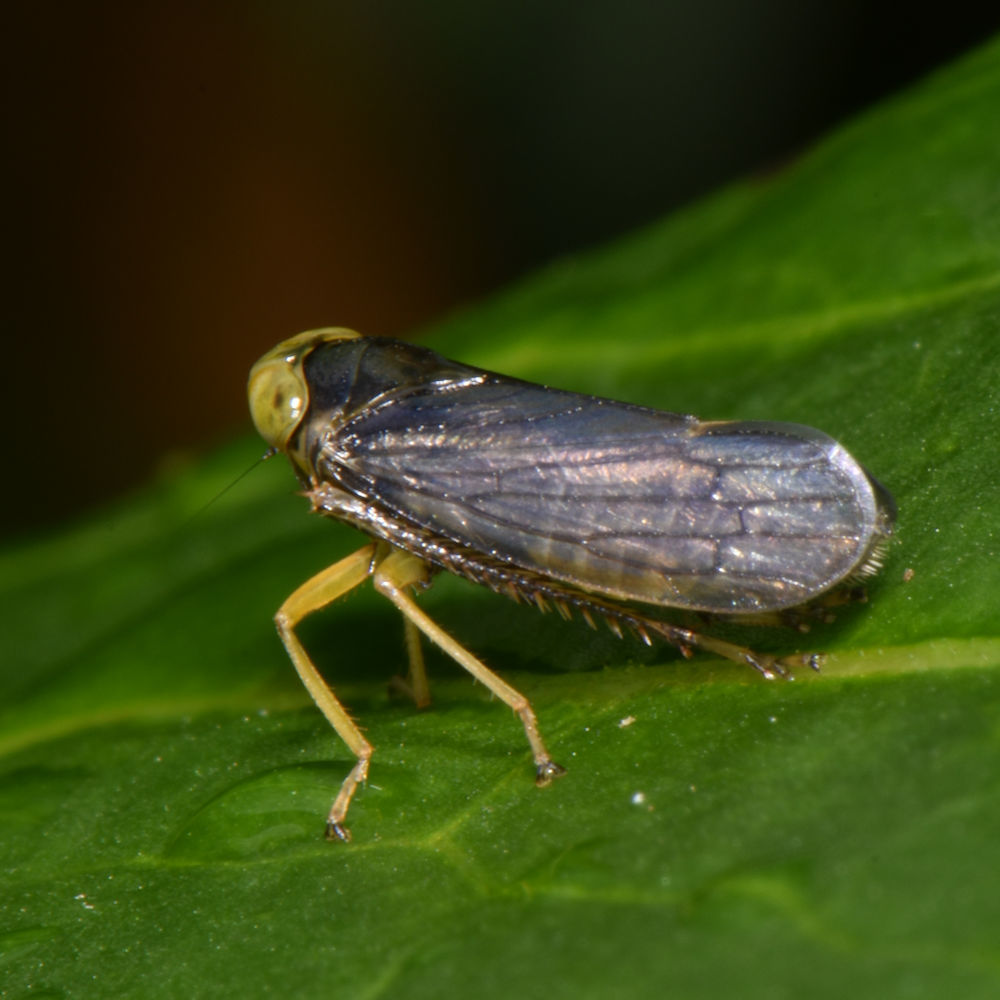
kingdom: Animalia
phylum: Arthropoda
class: Insecta
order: Hemiptera
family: Cicadellidae
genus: Jikradia
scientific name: Jikradia olitoria
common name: Coppery leafhopper
